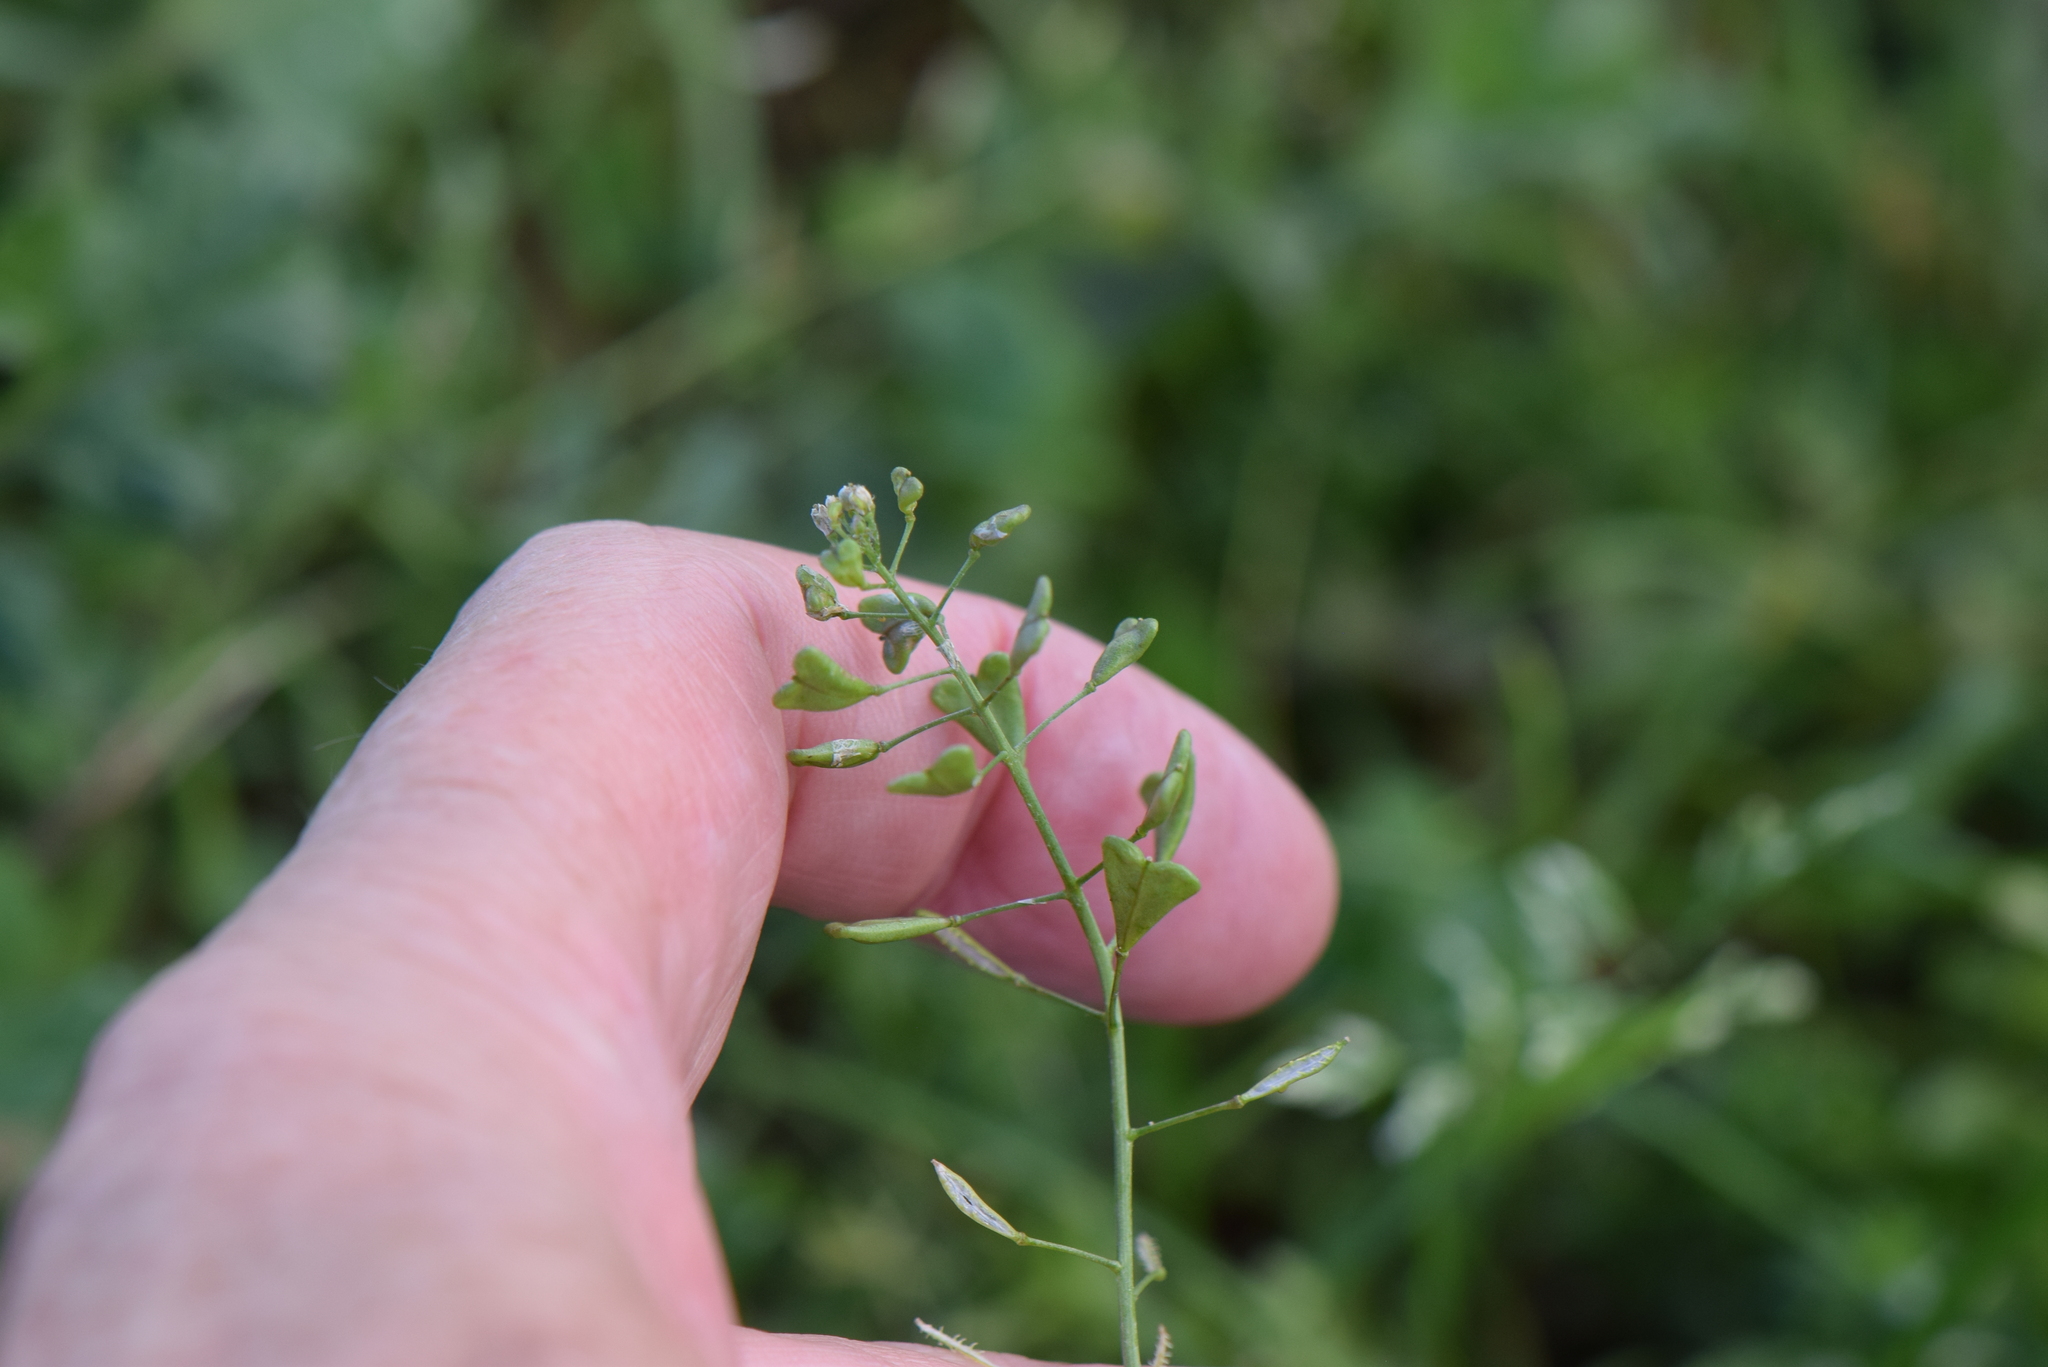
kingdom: Plantae
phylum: Tracheophyta
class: Magnoliopsida
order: Brassicales
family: Brassicaceae
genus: Capsella
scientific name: Capsella bursa-pastoris
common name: Shepherd's purse
